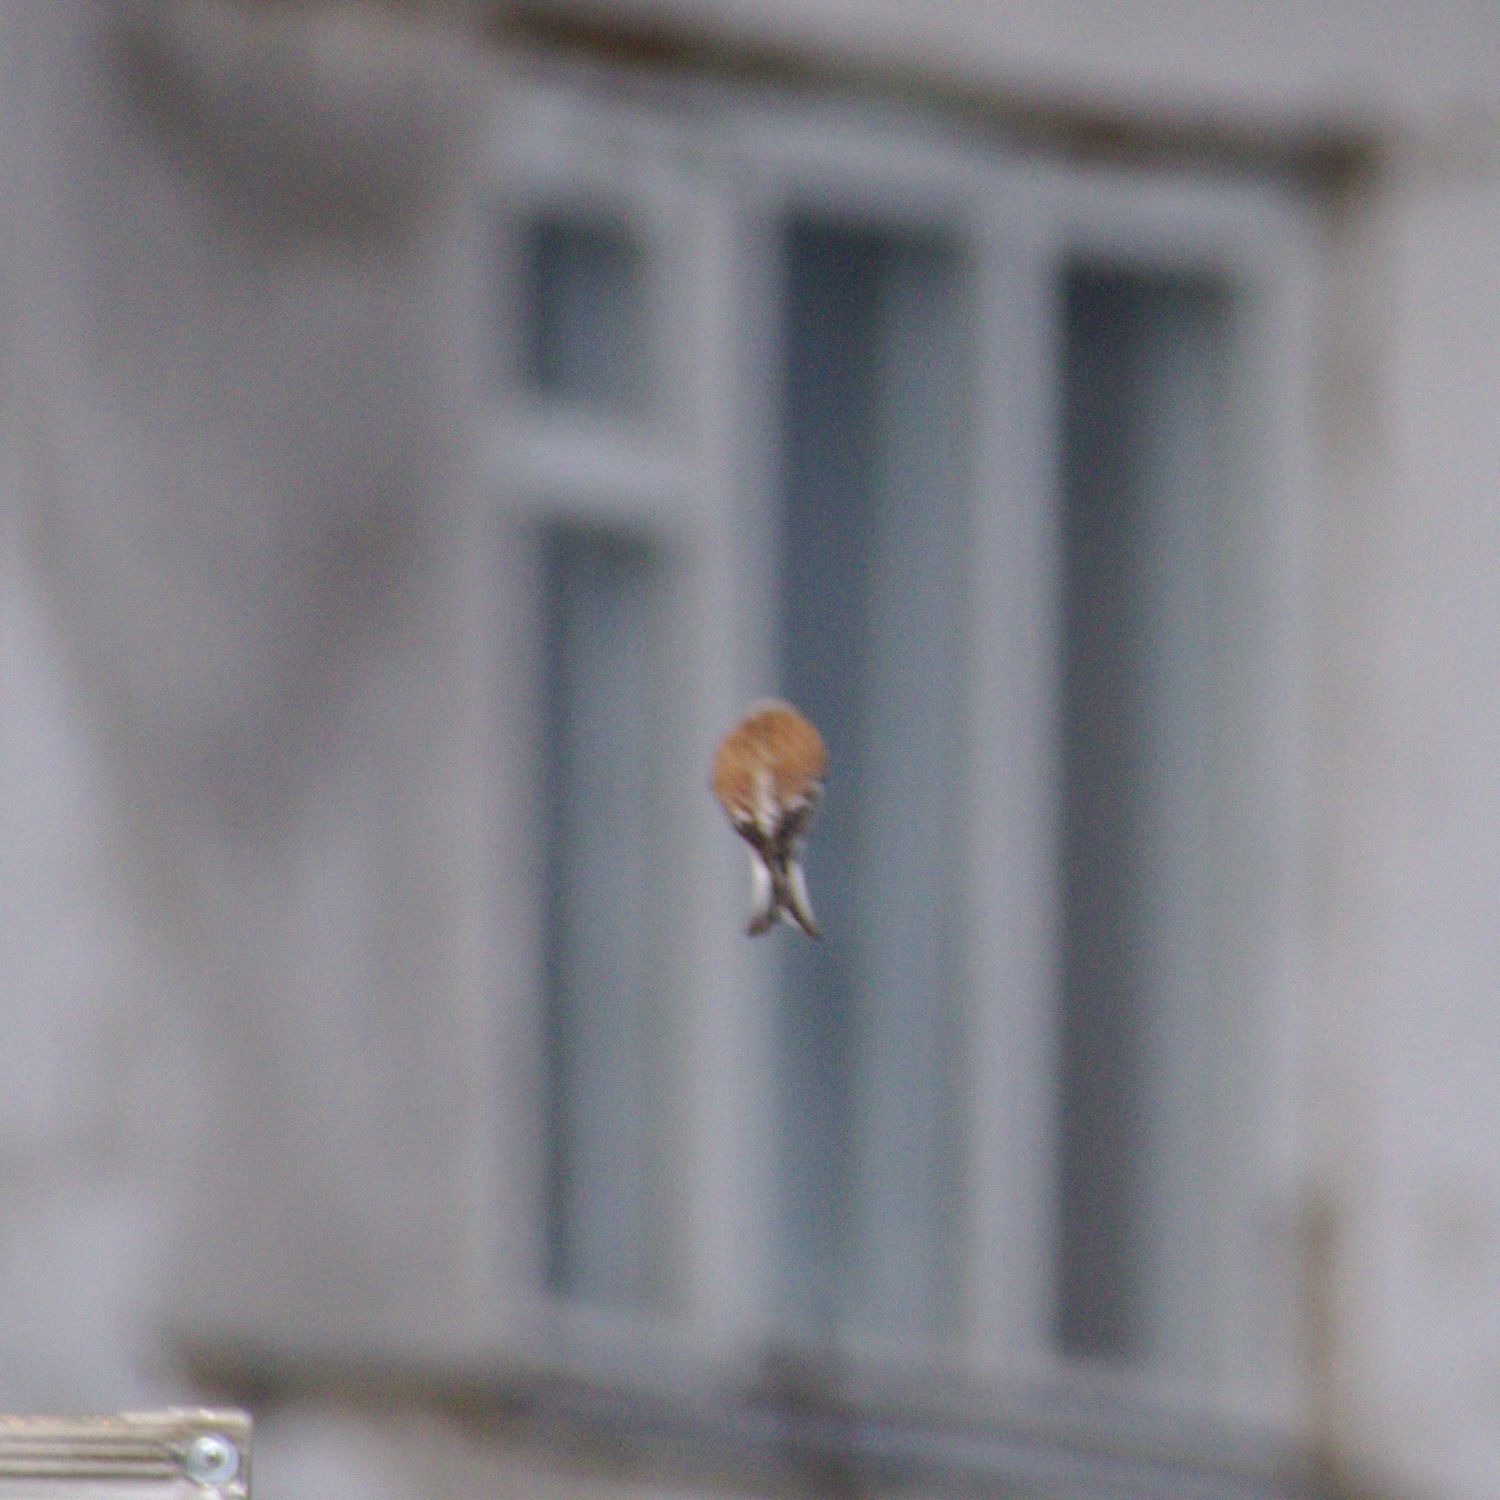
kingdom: Animalia
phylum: Chordata
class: Aves
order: Passeriformes
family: Fringillidae
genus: Linaria
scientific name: Linaria cannabina
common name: Common linnet
